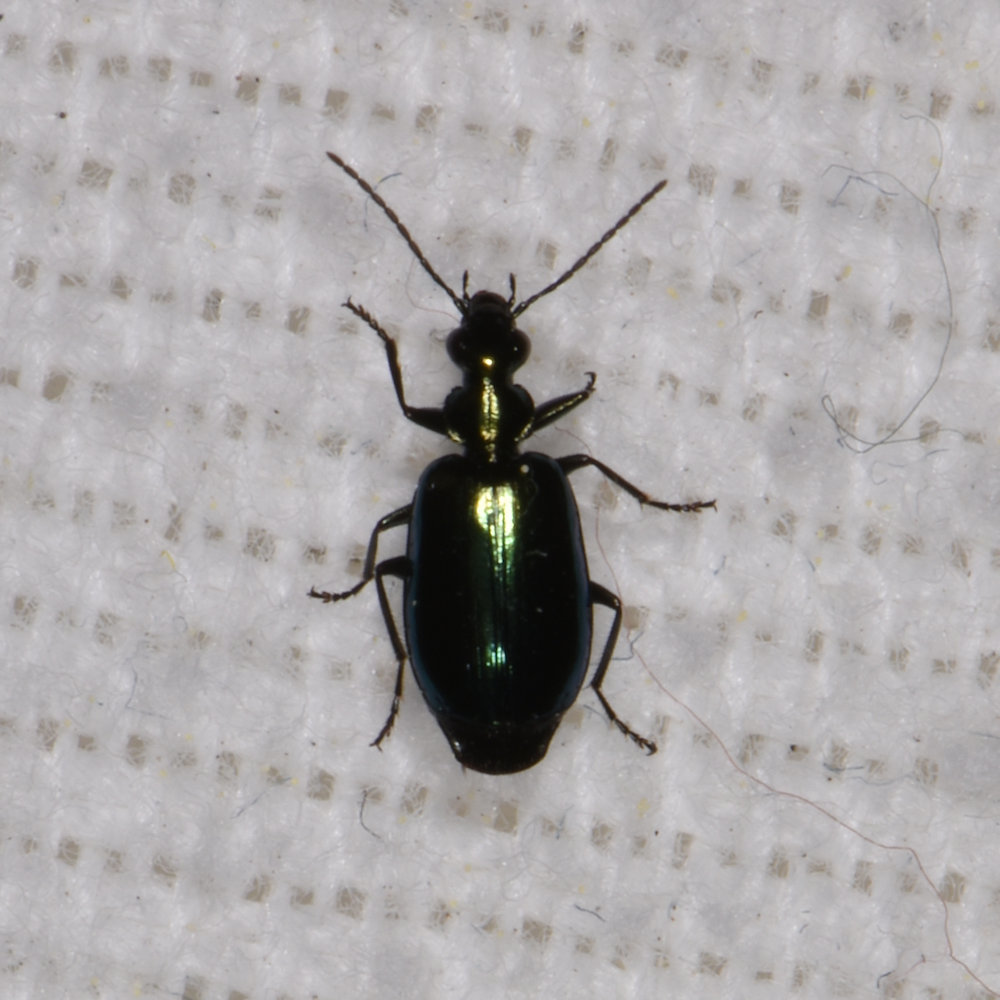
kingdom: Animalia
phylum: Arthropoda
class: Insecta
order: Coleoptera
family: Carabidae
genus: Lebia
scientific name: Lebia viridis
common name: Flower lebia beetle
